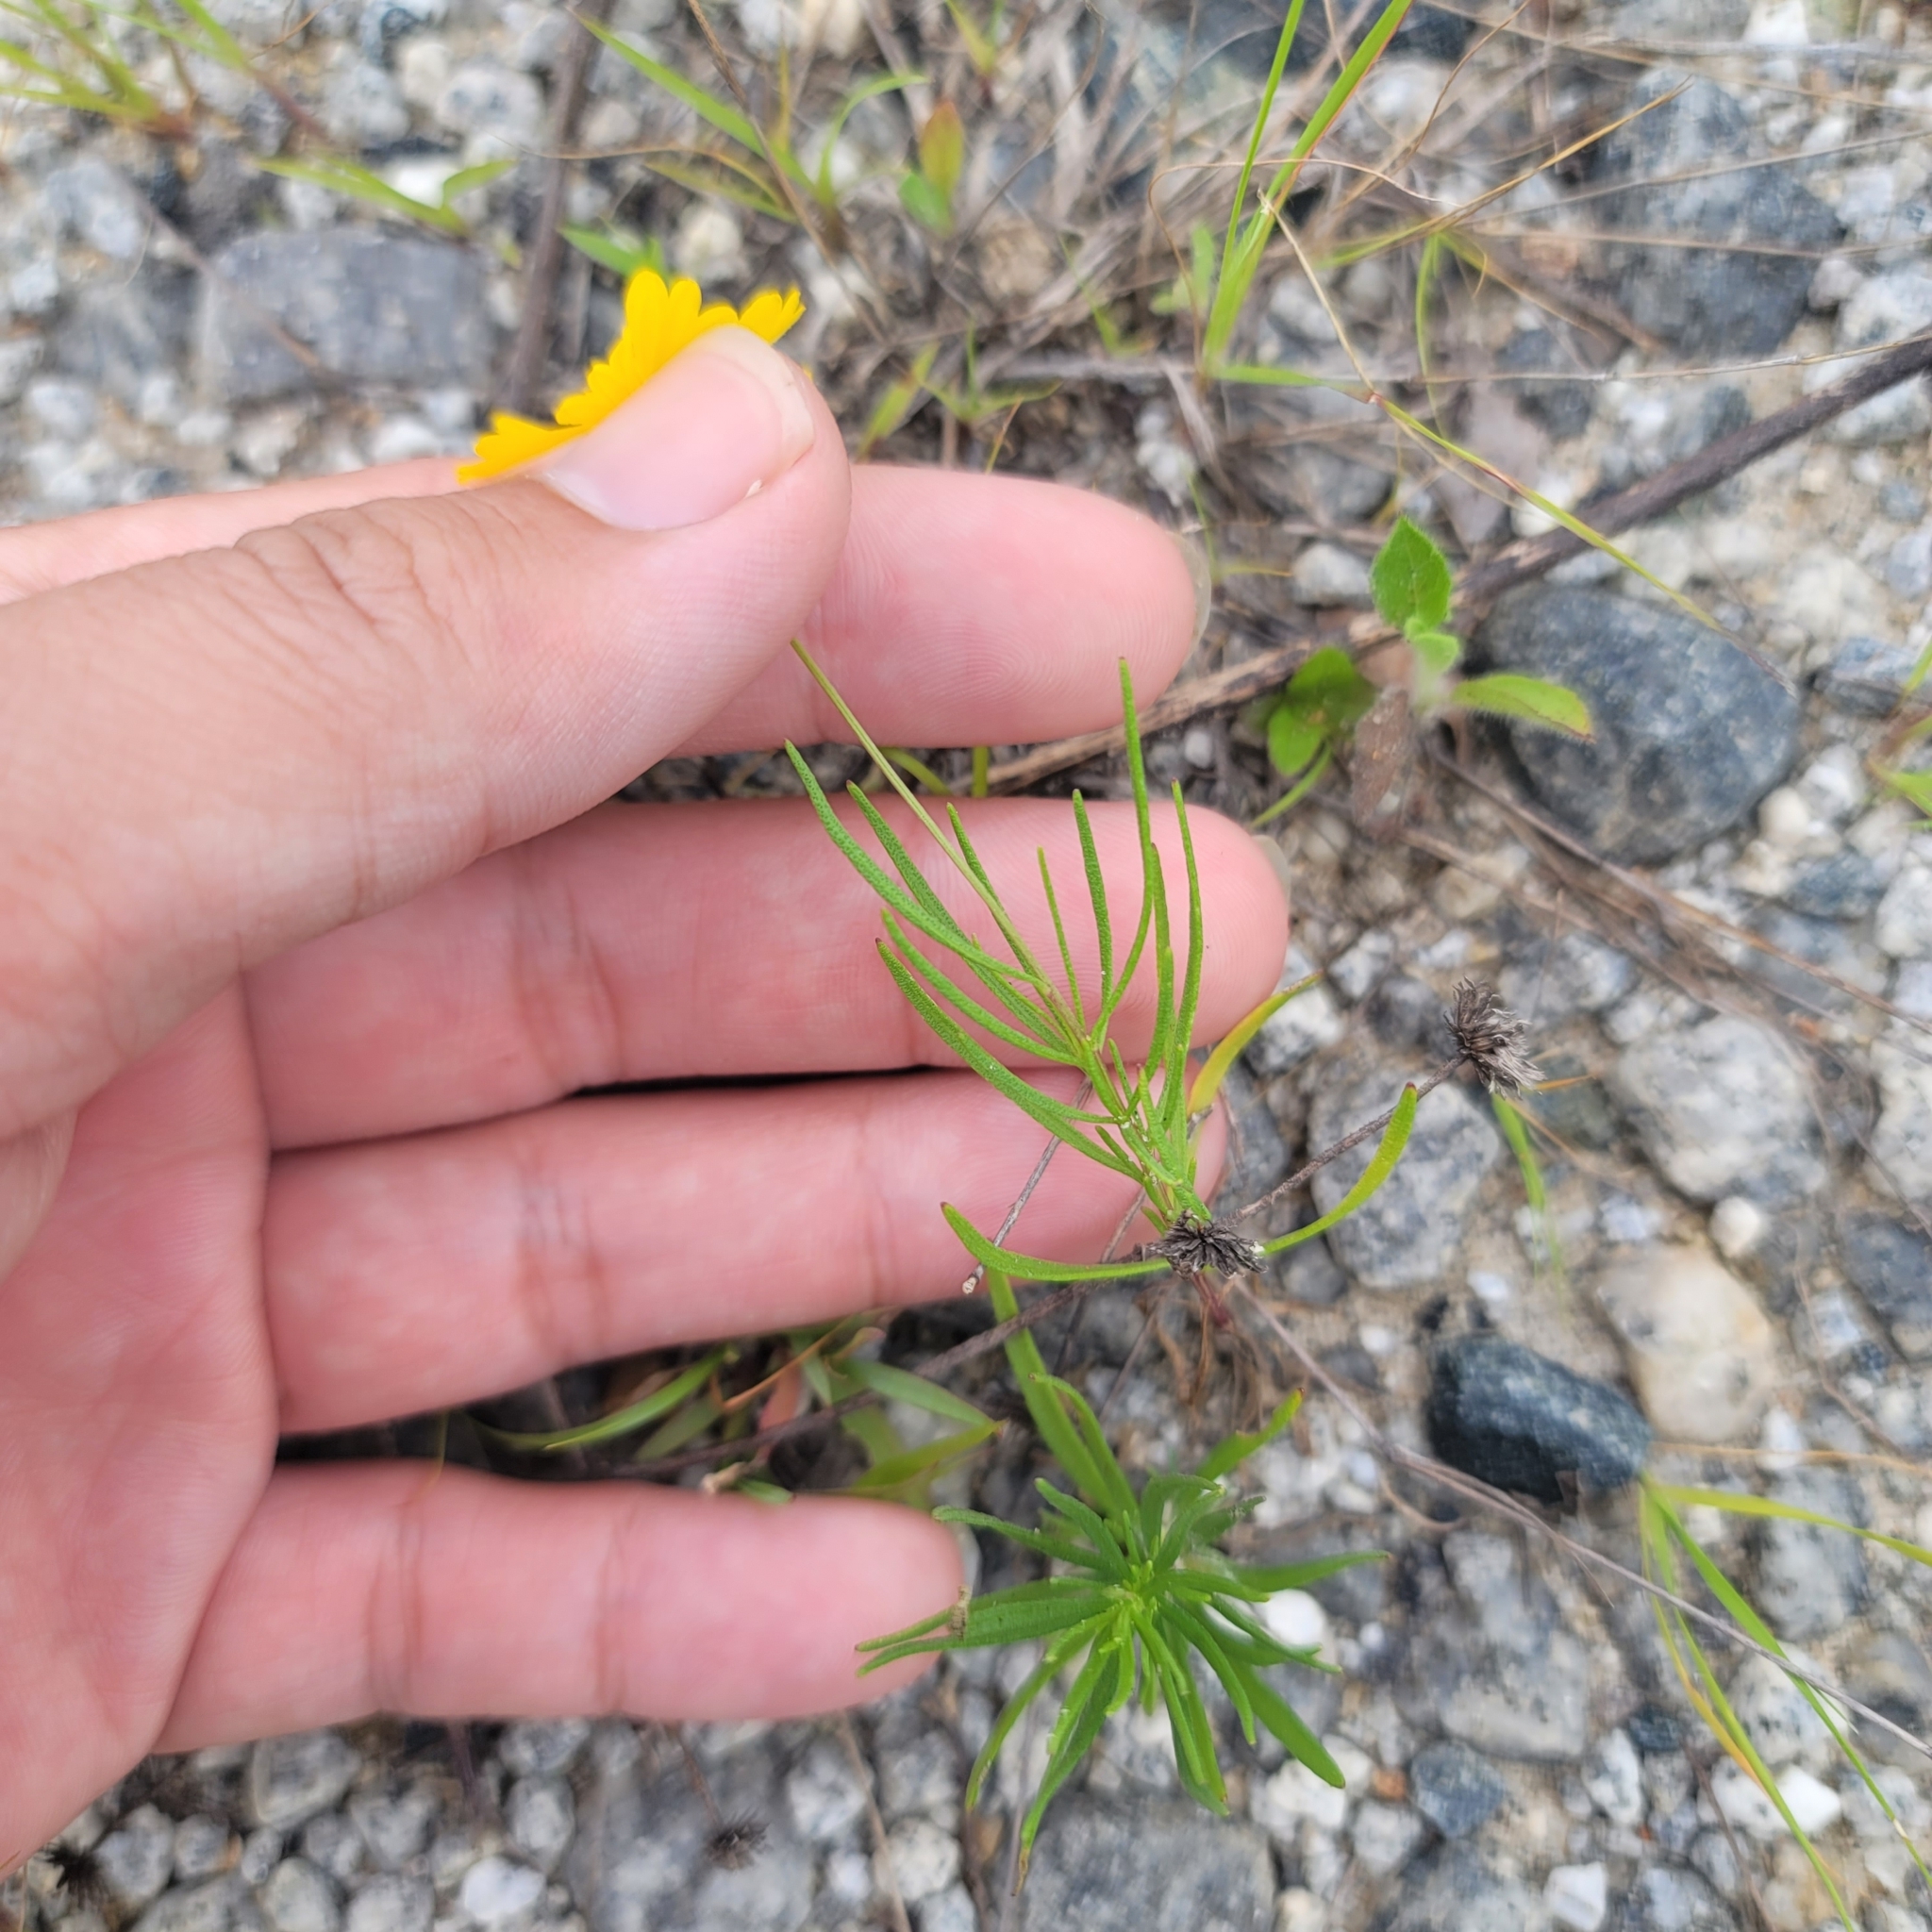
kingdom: Plantae
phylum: Tracheophyta
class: Magnoliopsida
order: Asterales
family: Asteraceae
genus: Helenium
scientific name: Helenium amarum
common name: Bitter sneezeweed
